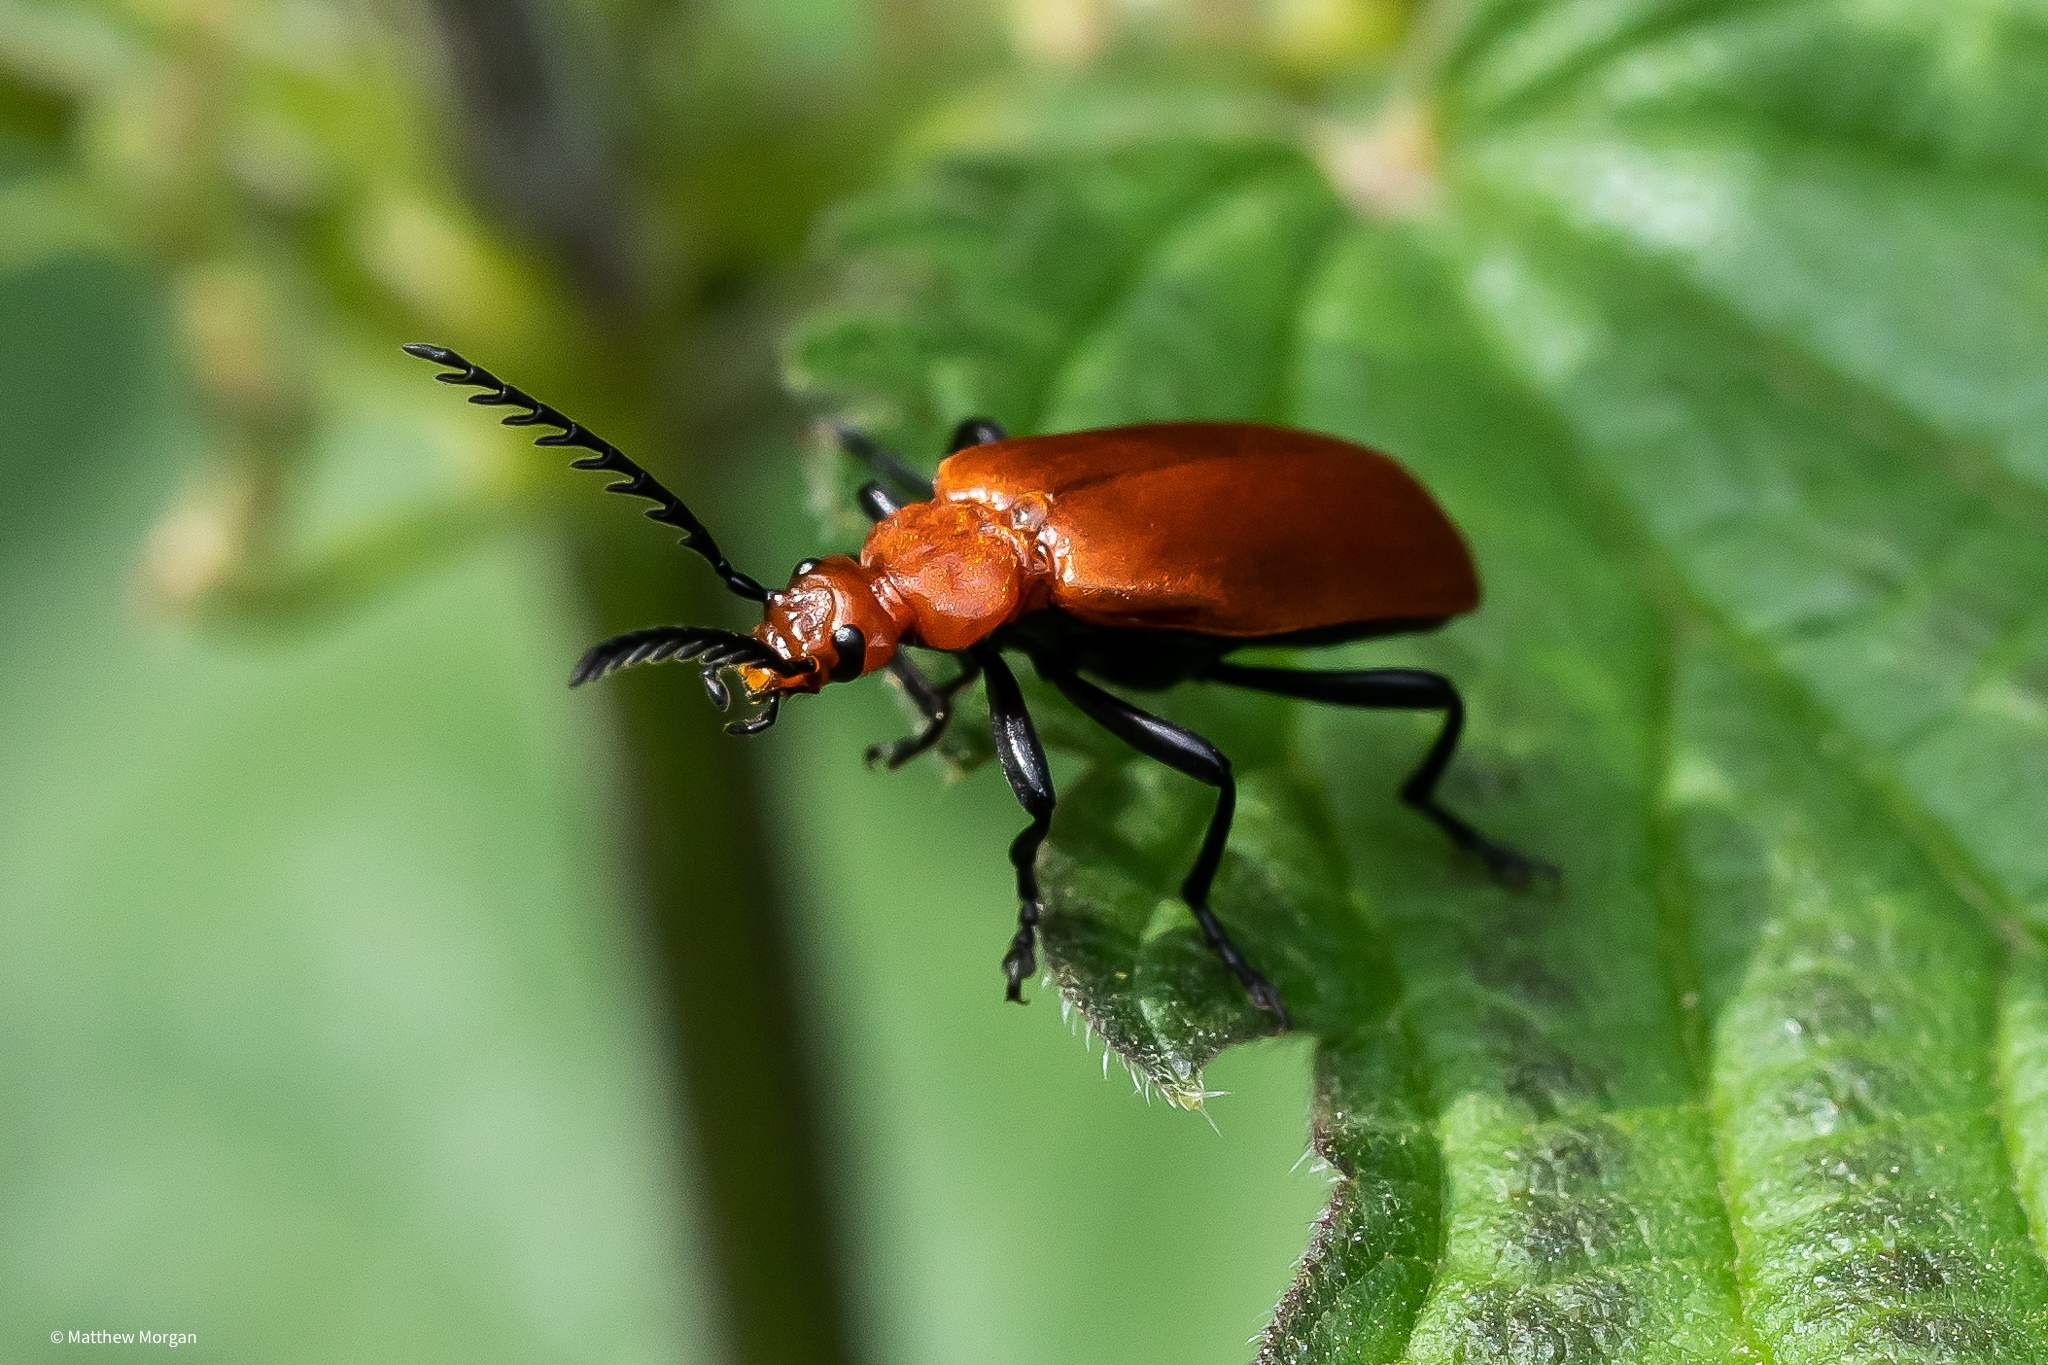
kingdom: Animalia
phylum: Arthropoda
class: Insecta
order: Coleoptera
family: Pyrochroidae
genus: Pyrochroa
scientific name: Pyrochroa serraticornis
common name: Red-headed cardinal beetle
